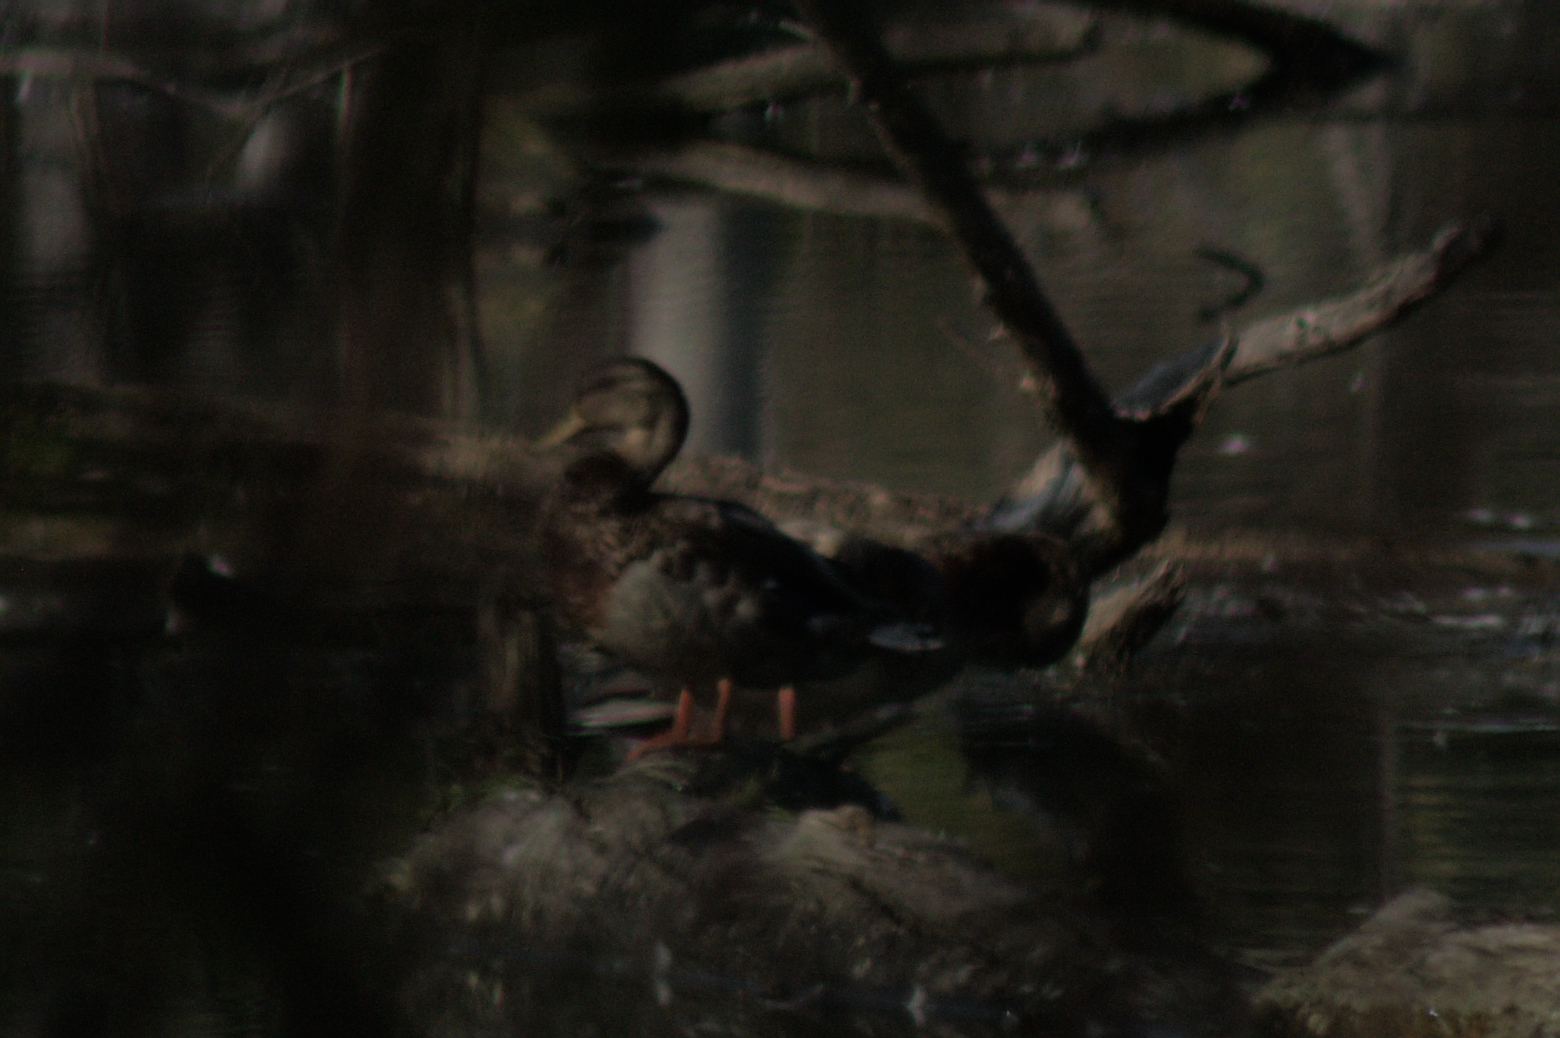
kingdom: Animalia
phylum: Chordata
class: Aves
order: Anseriformes
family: Anatidae
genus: Anas
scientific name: Anas platyrhynchos
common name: Mallard
